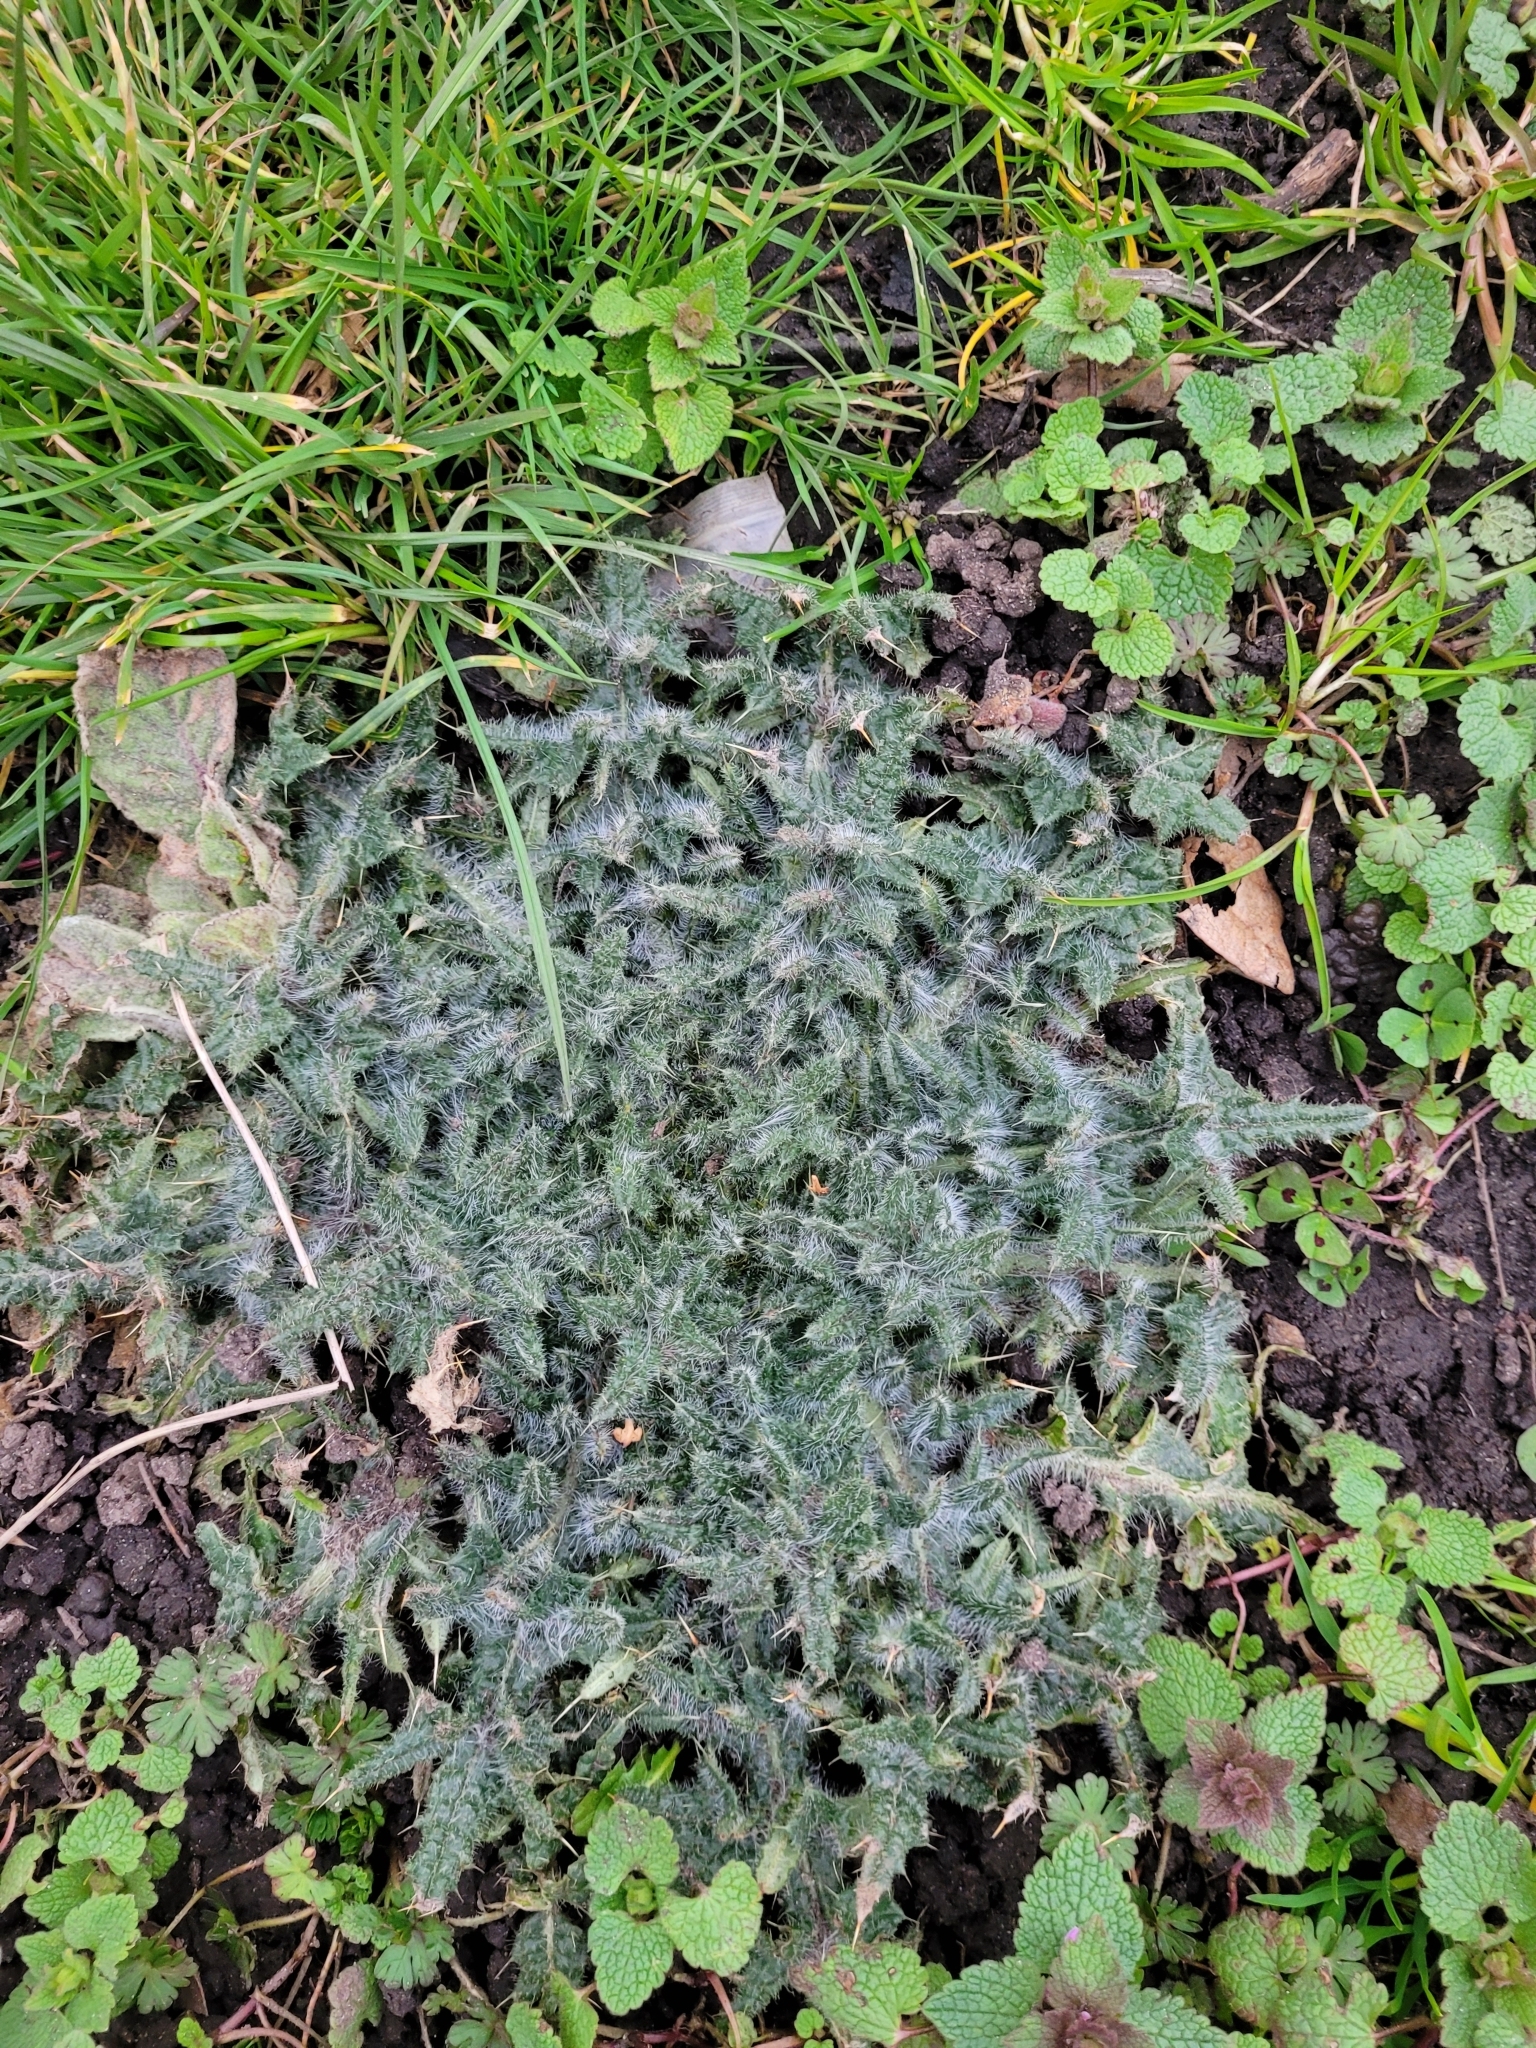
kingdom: Plantae
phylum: Tracheophyta
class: Magnoliopsida
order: Asterales
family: Asteraceae
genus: Cirsium
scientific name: Cirsium vulgare
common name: Bull thistle
